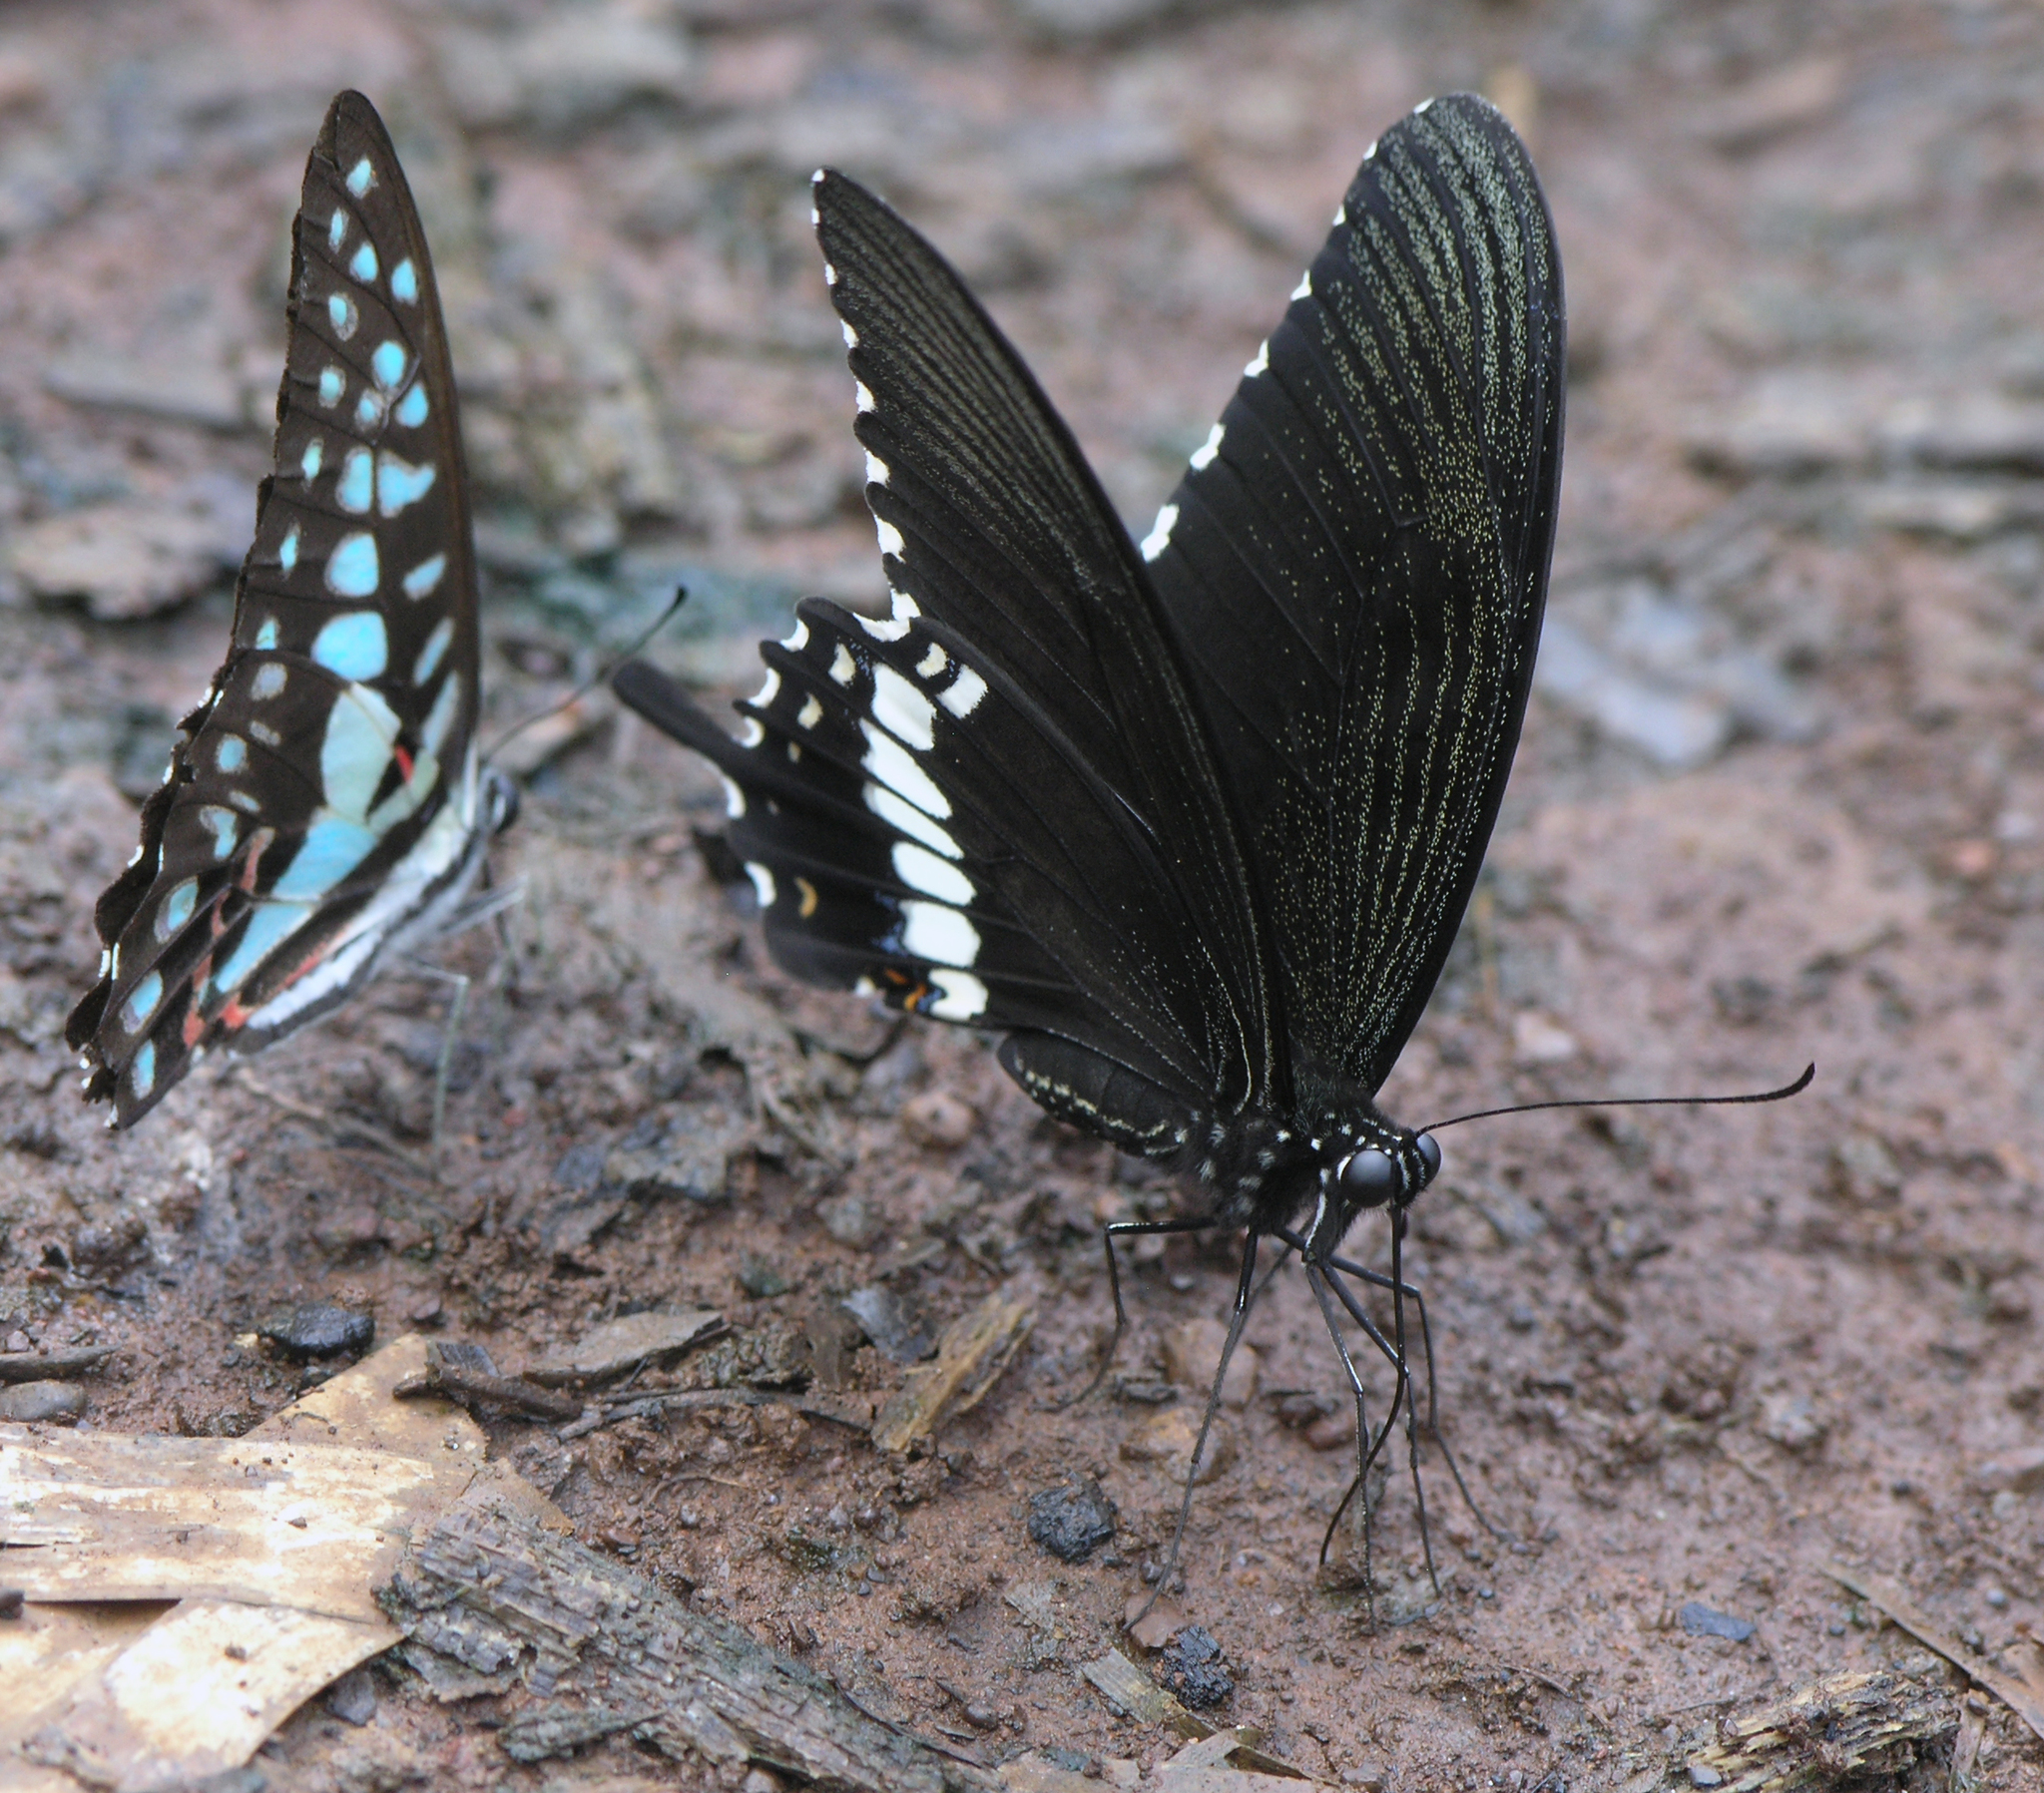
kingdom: Animalia
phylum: Arthropoda
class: Insecta
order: Lepidoptera
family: Papilionidae
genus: Papilio
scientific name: Papilio polytes
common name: Common mormon
